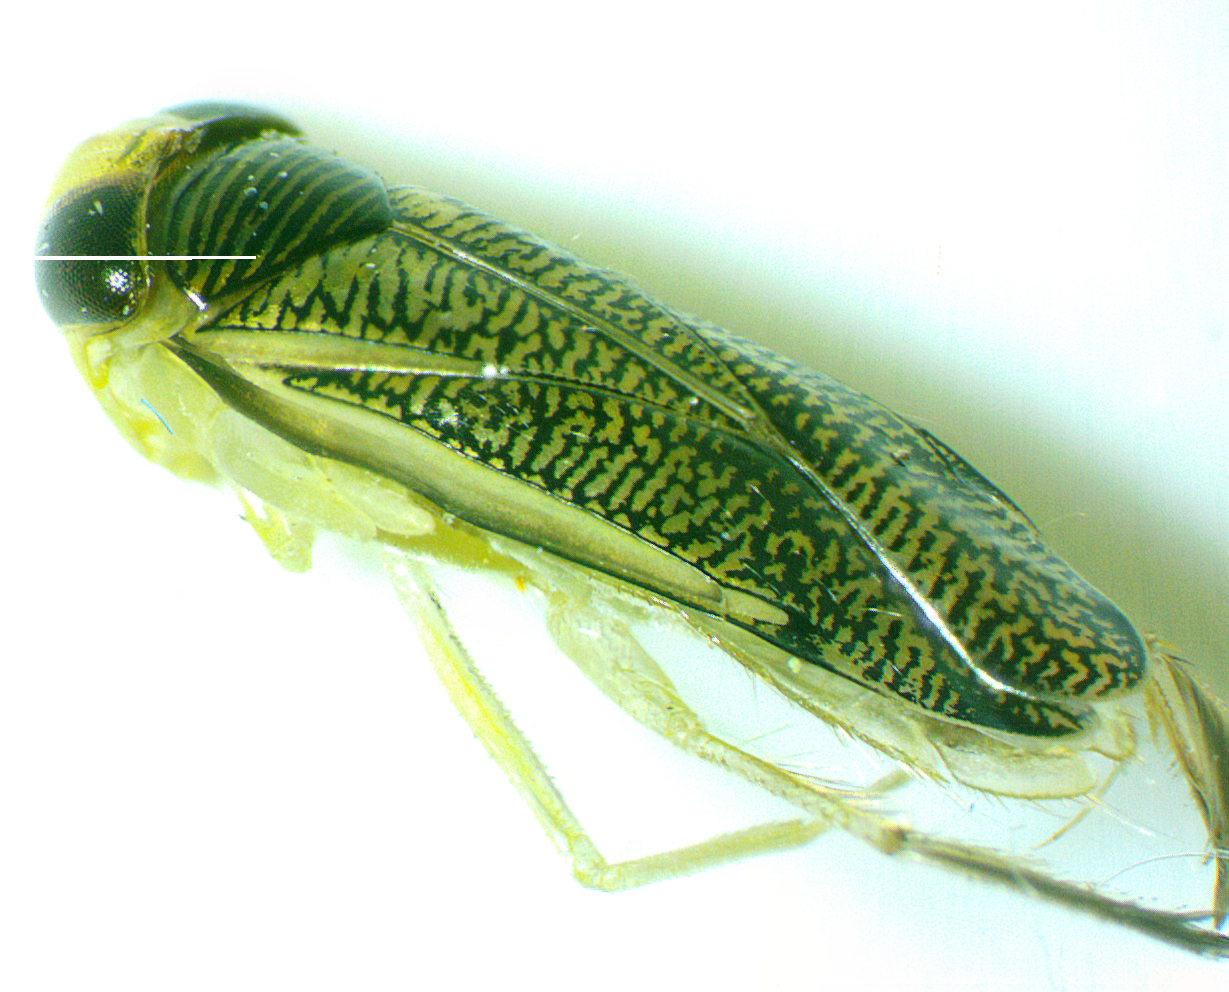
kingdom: Animalia
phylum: Arthropoda
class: Insecta
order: Hemiptera
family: Corixidae
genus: Trichocorixa
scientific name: Trichocorixa calva
